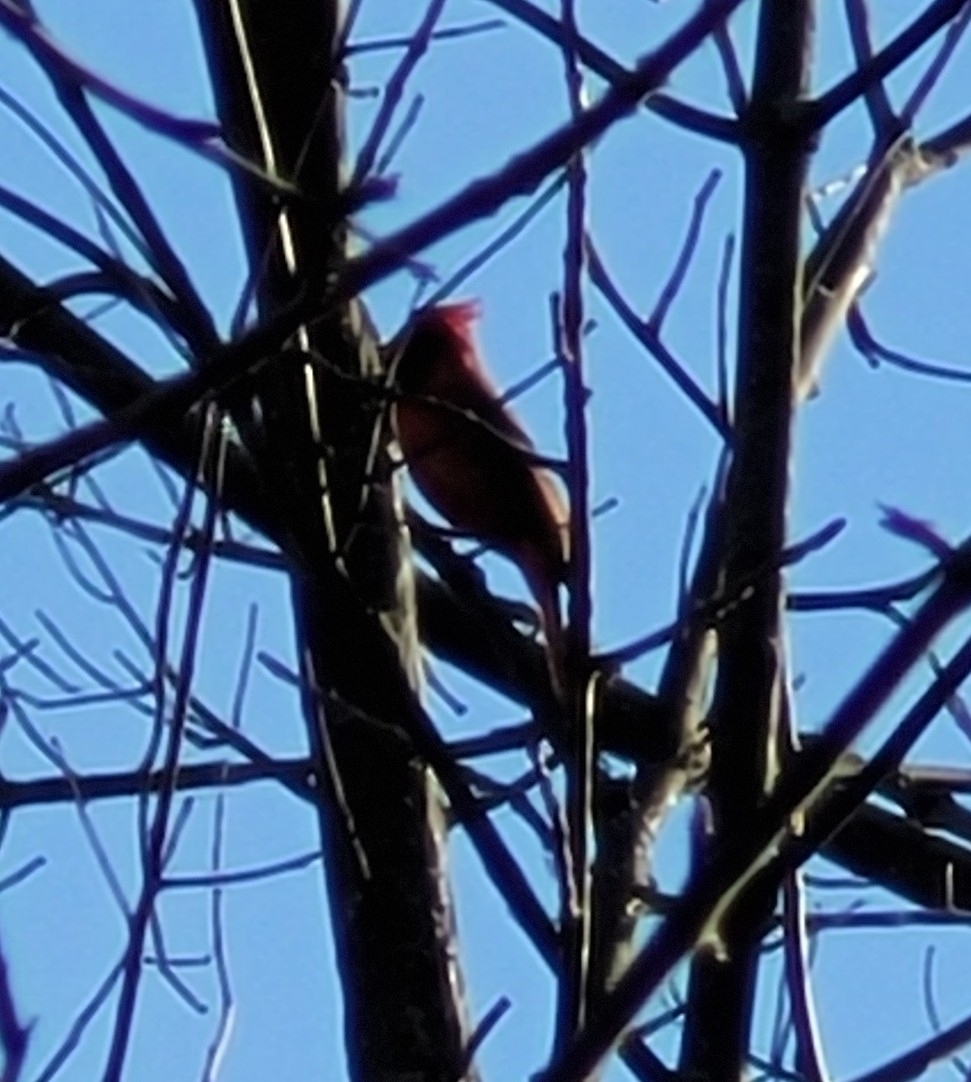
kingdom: Animalia
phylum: Chordata
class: Aves
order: Passeriformes
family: Cardinalidae
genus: Cardinalis
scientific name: Cardinalis cardinalis
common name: Northern cardinal
